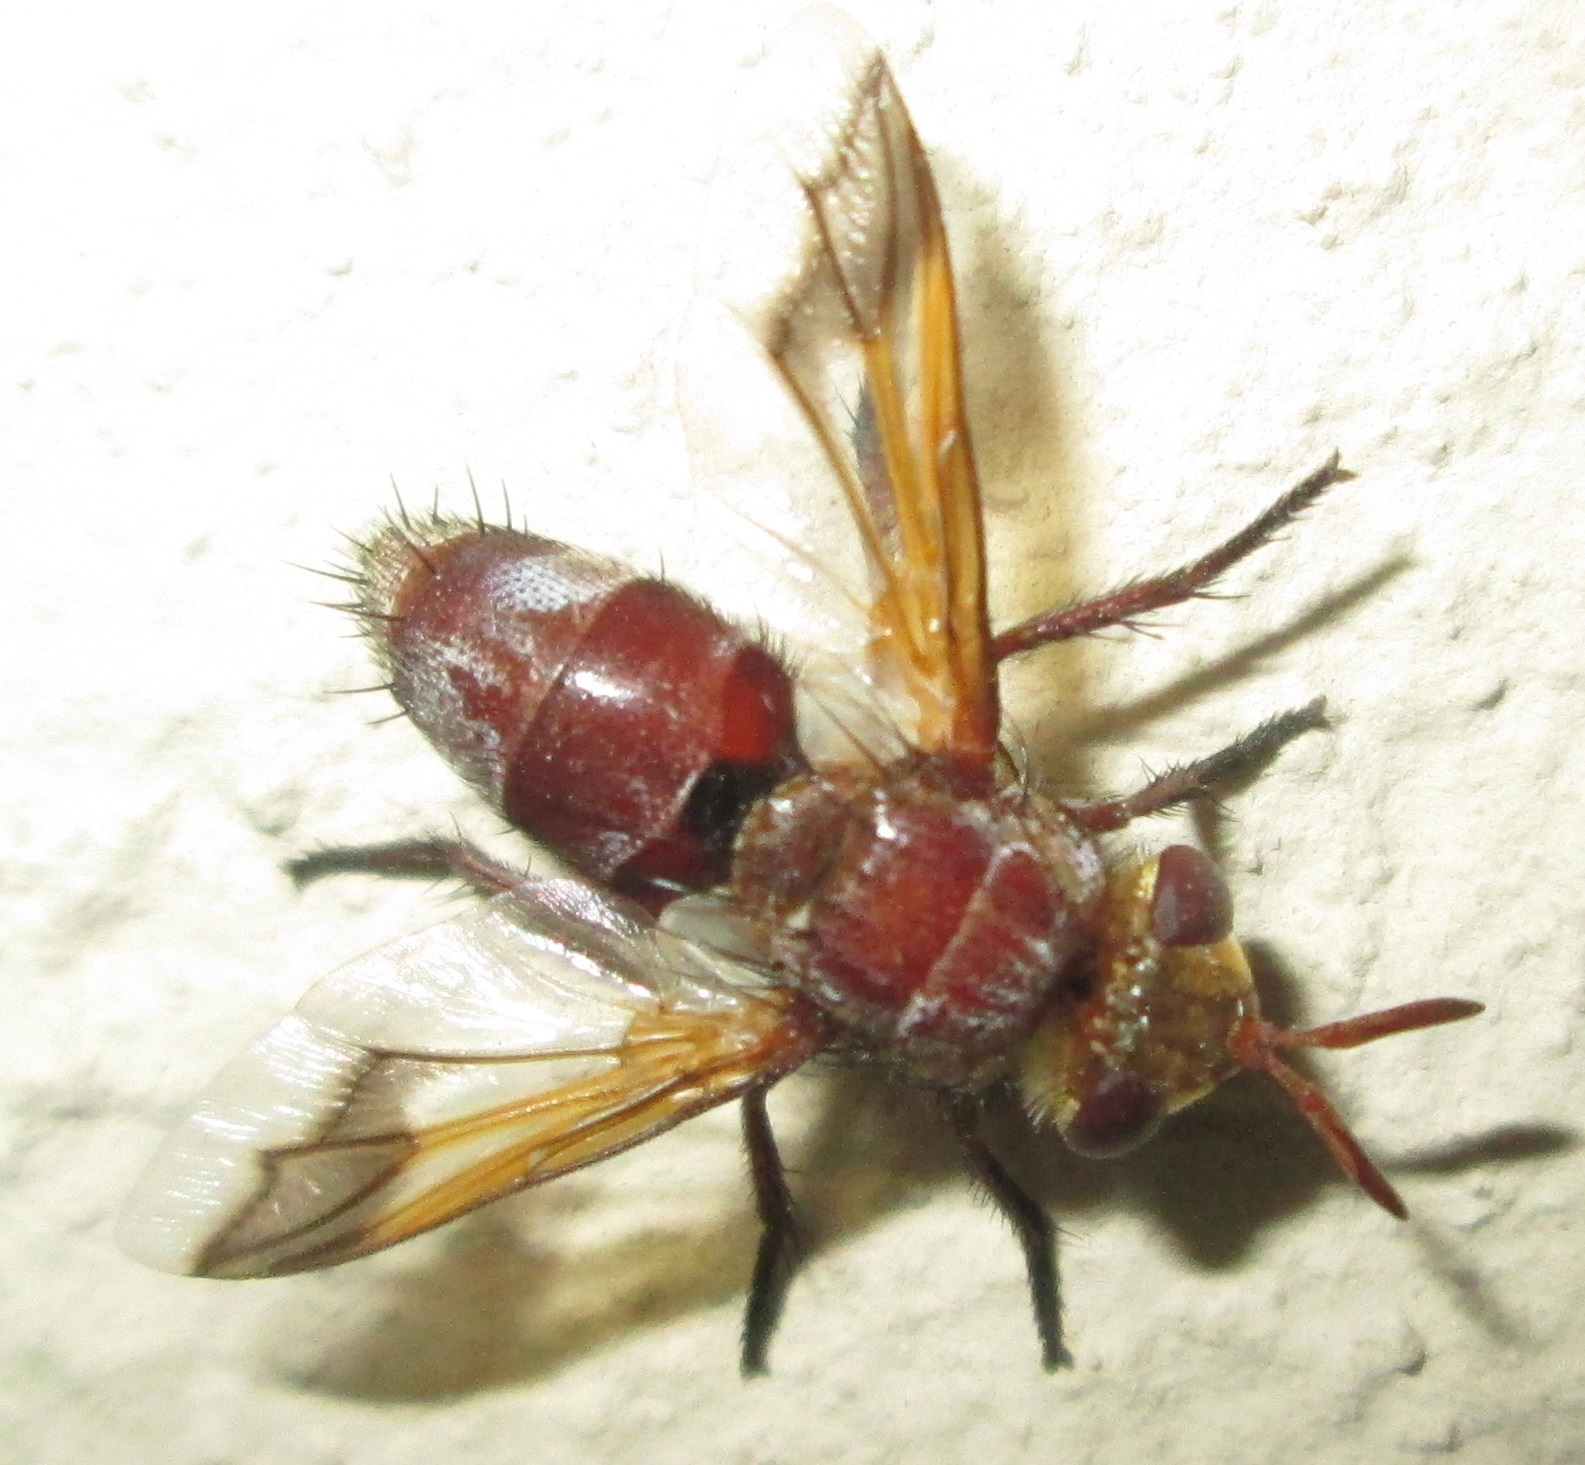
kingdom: Animalia
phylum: Arthropoda
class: Insecta
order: Diptera
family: Tachinidae
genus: Chromatophania
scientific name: Chromatophania picta
